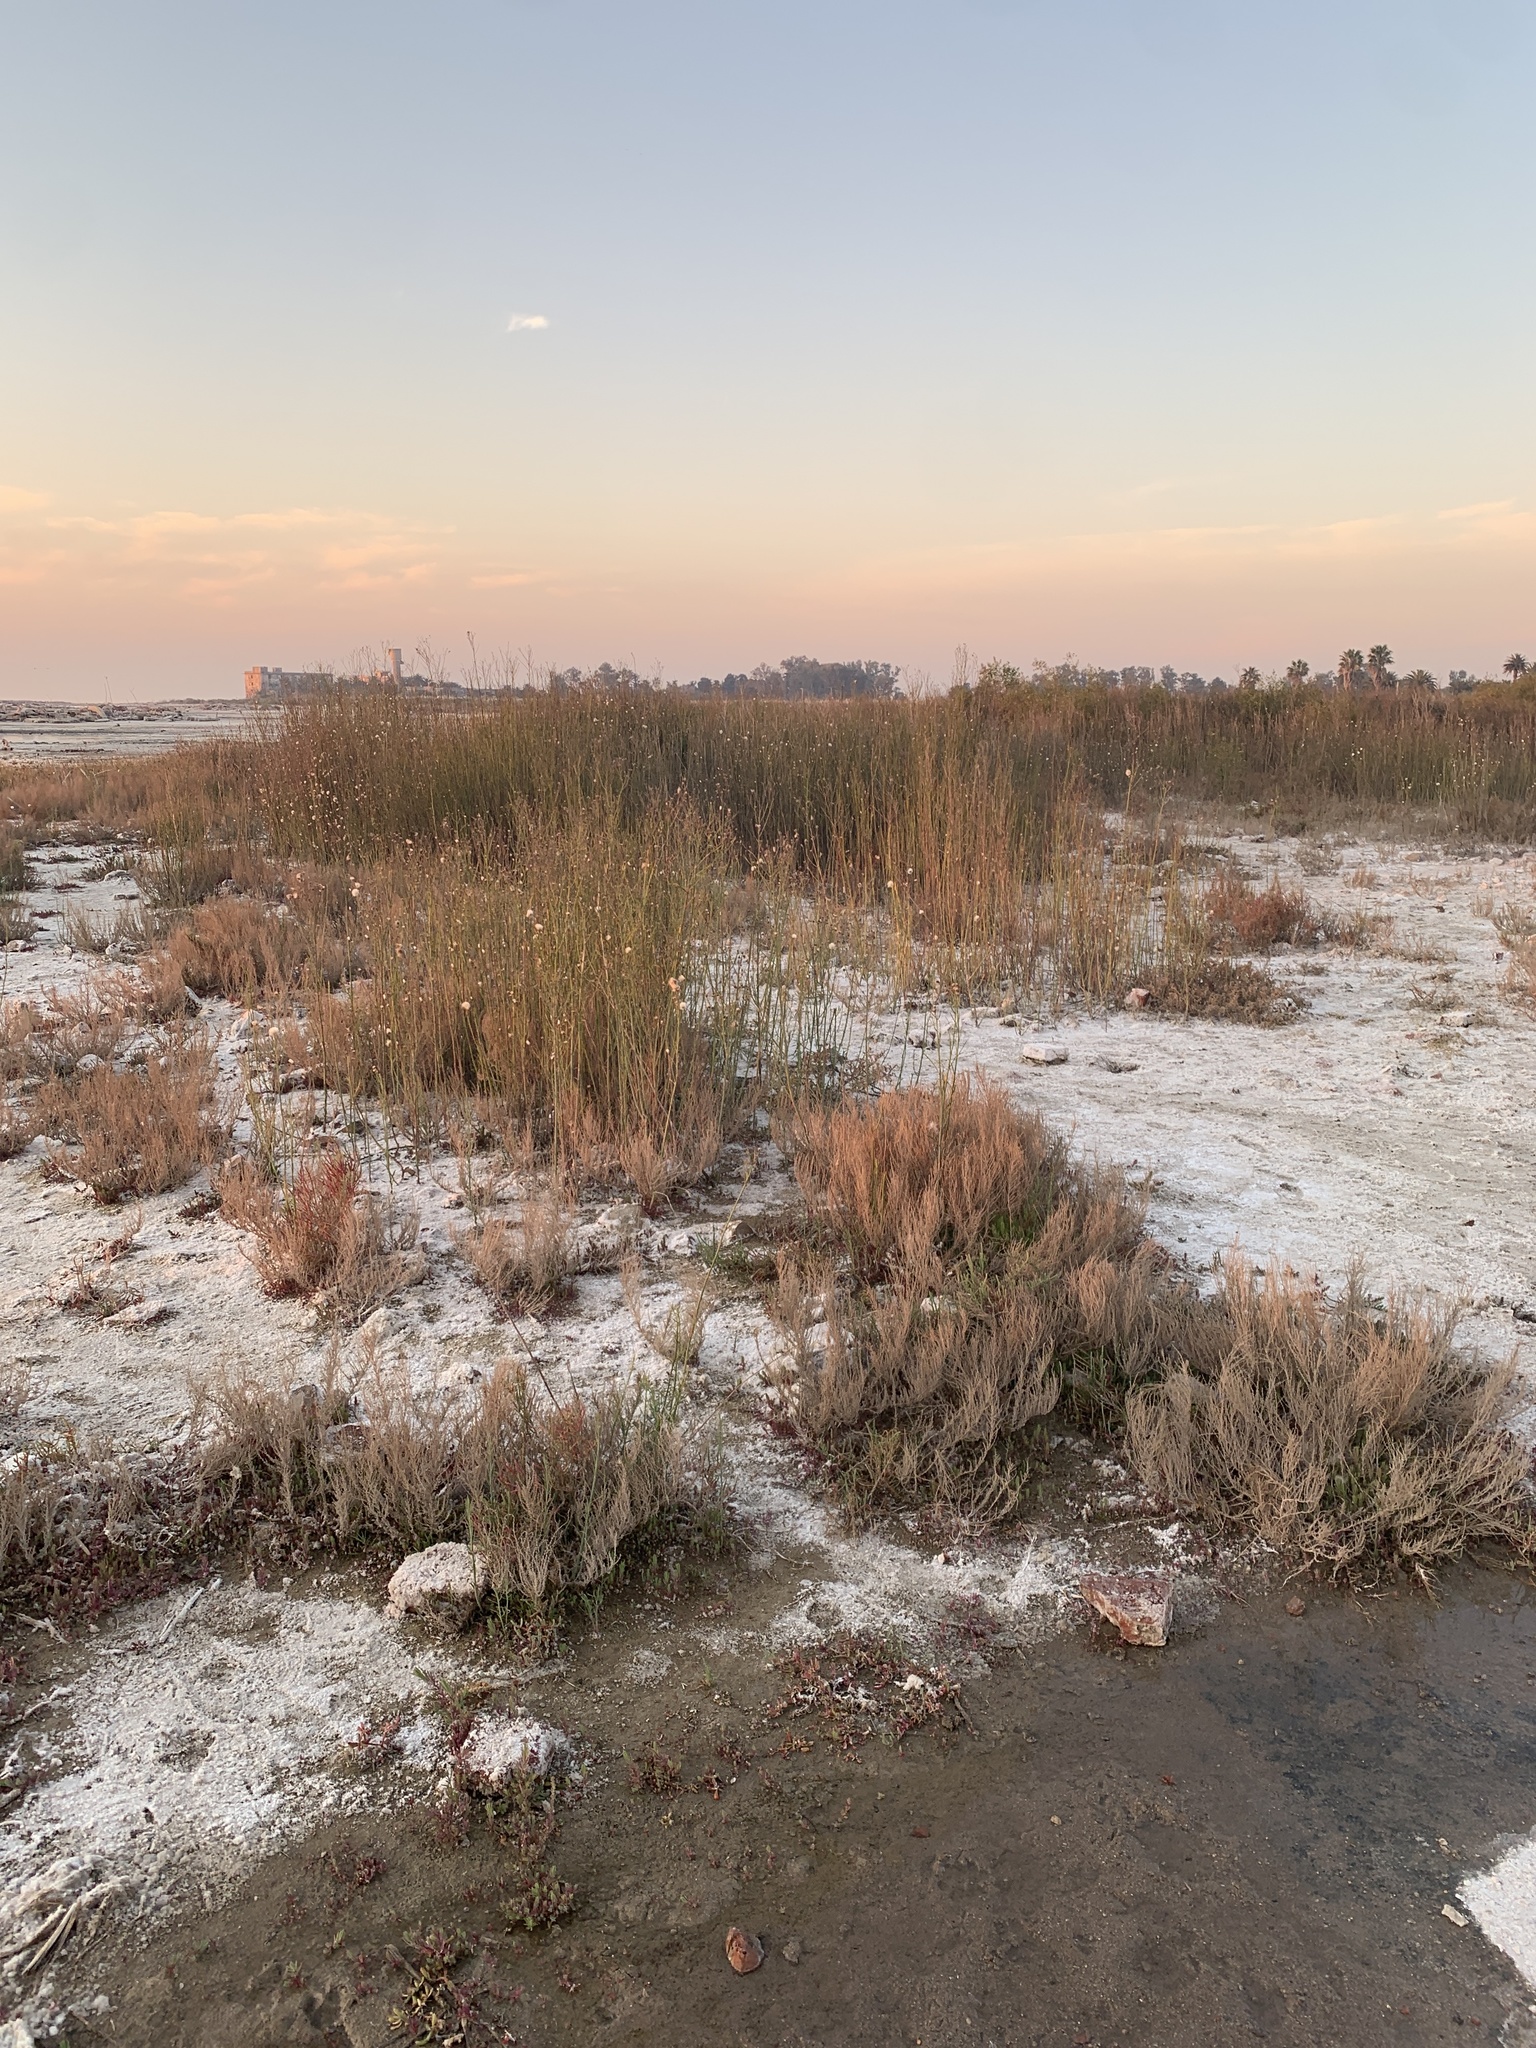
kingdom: Plantae
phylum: Tracheophyta
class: Magnoliopsida
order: Asterales
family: Asteraceae
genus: Baccharis
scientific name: Baccharis juncea
